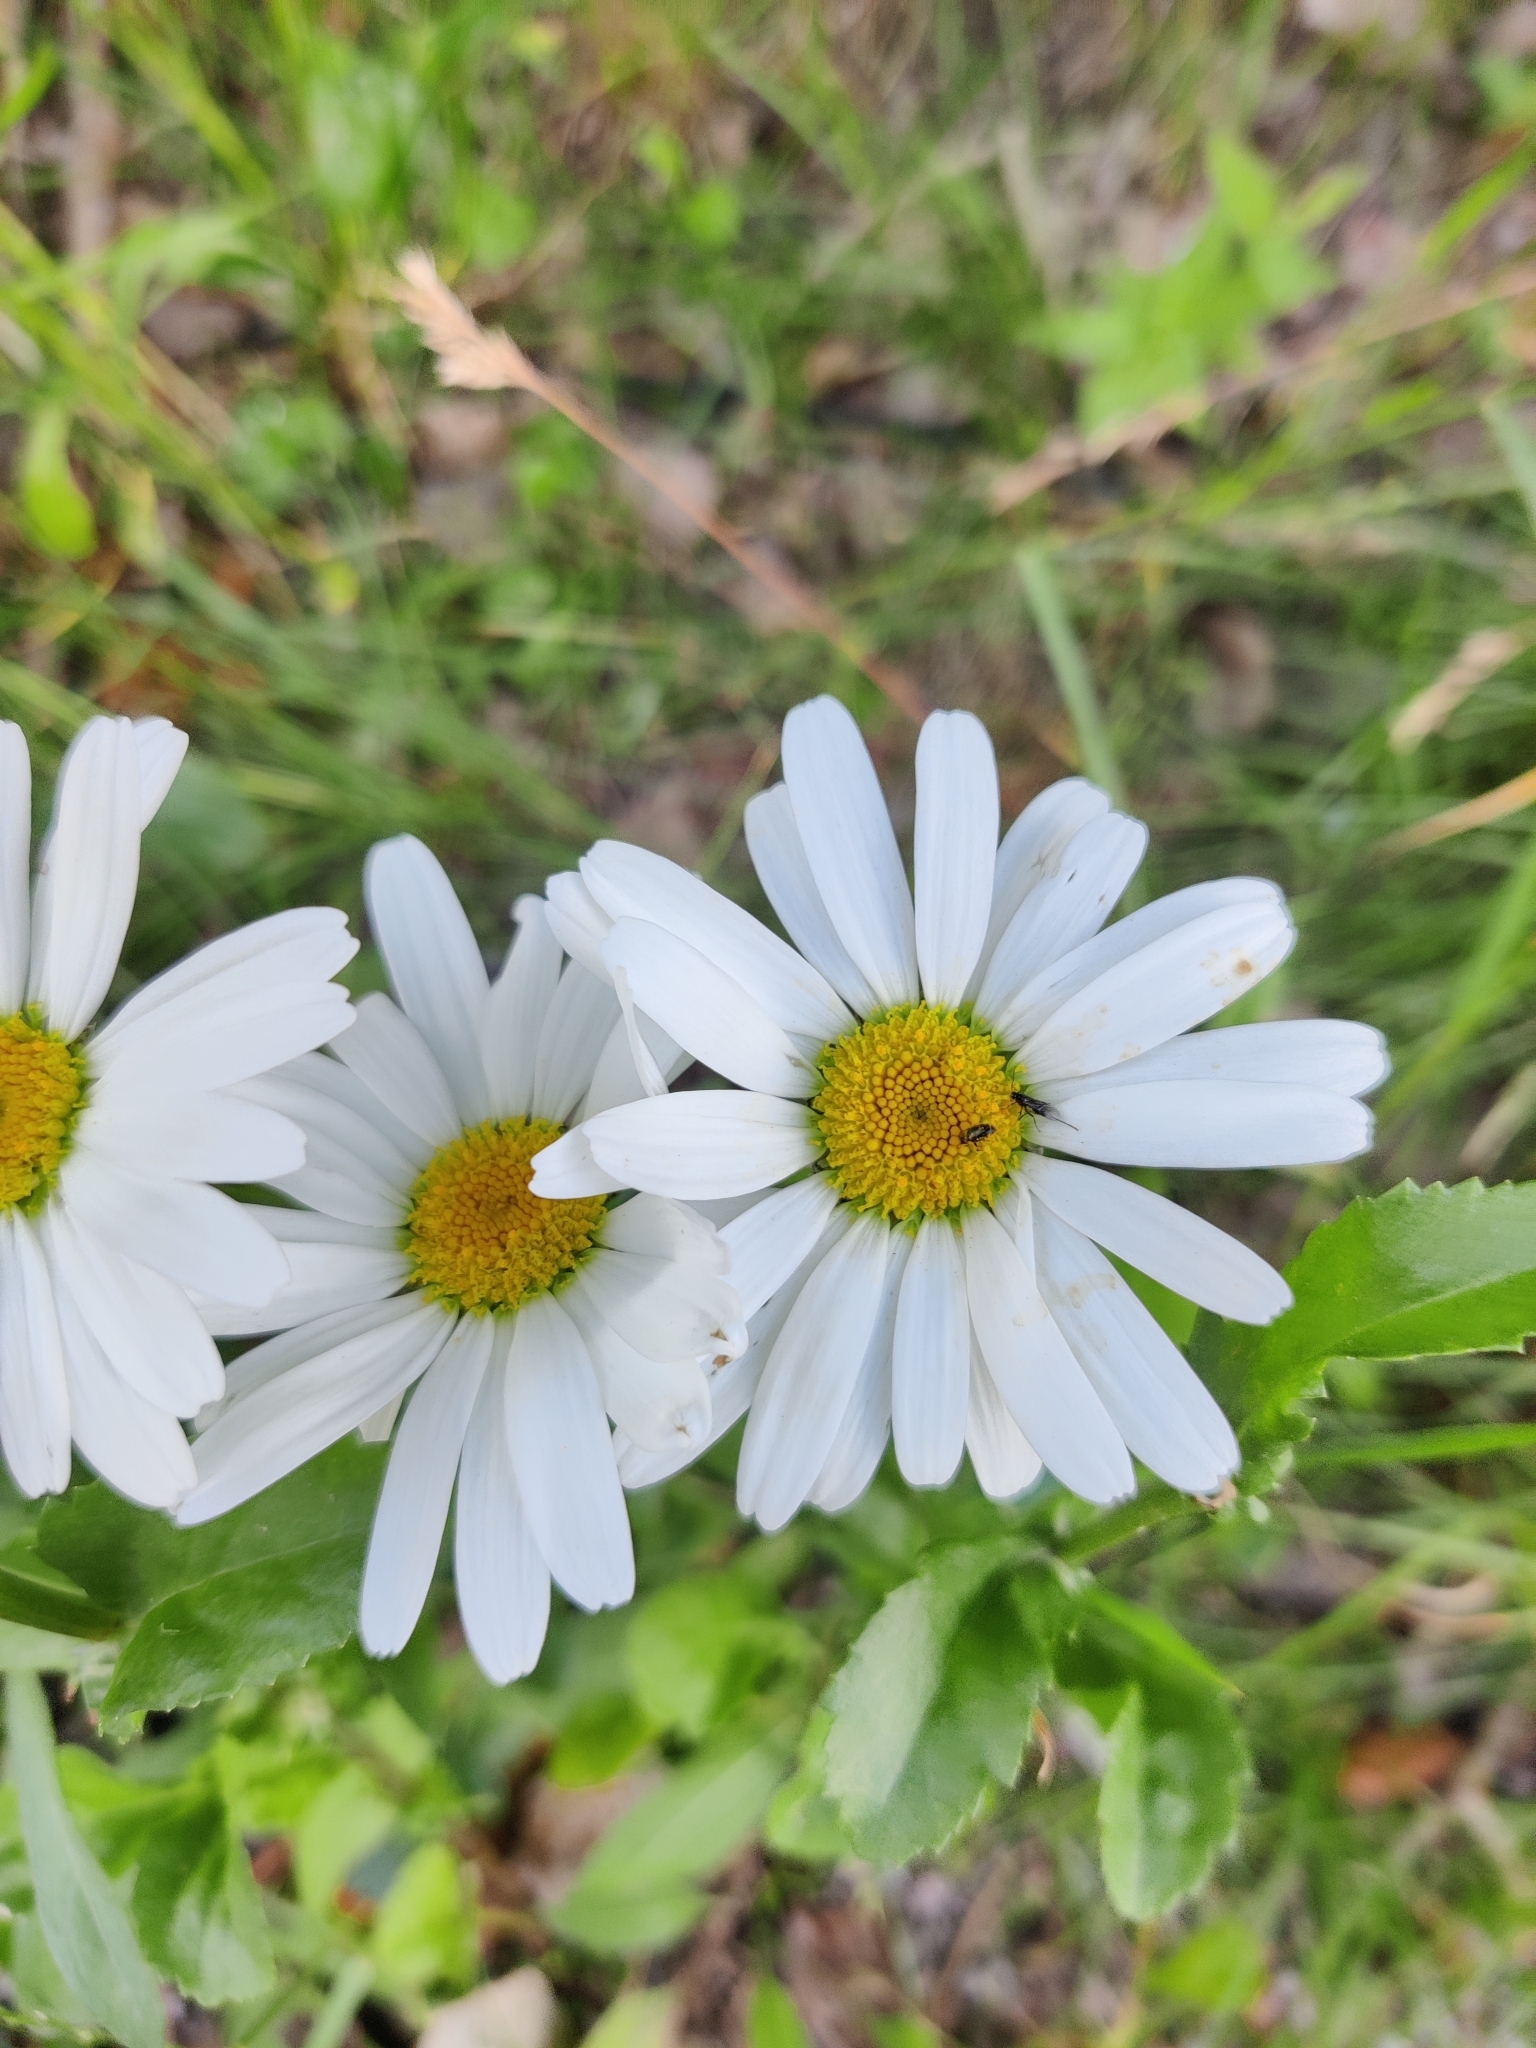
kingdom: Plantae
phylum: Tracheophyta
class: Magnoliopsida
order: Asterales
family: Asteraceae
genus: Leucanthemum
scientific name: Leucanthemum vulgare
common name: Oxeye daisy
